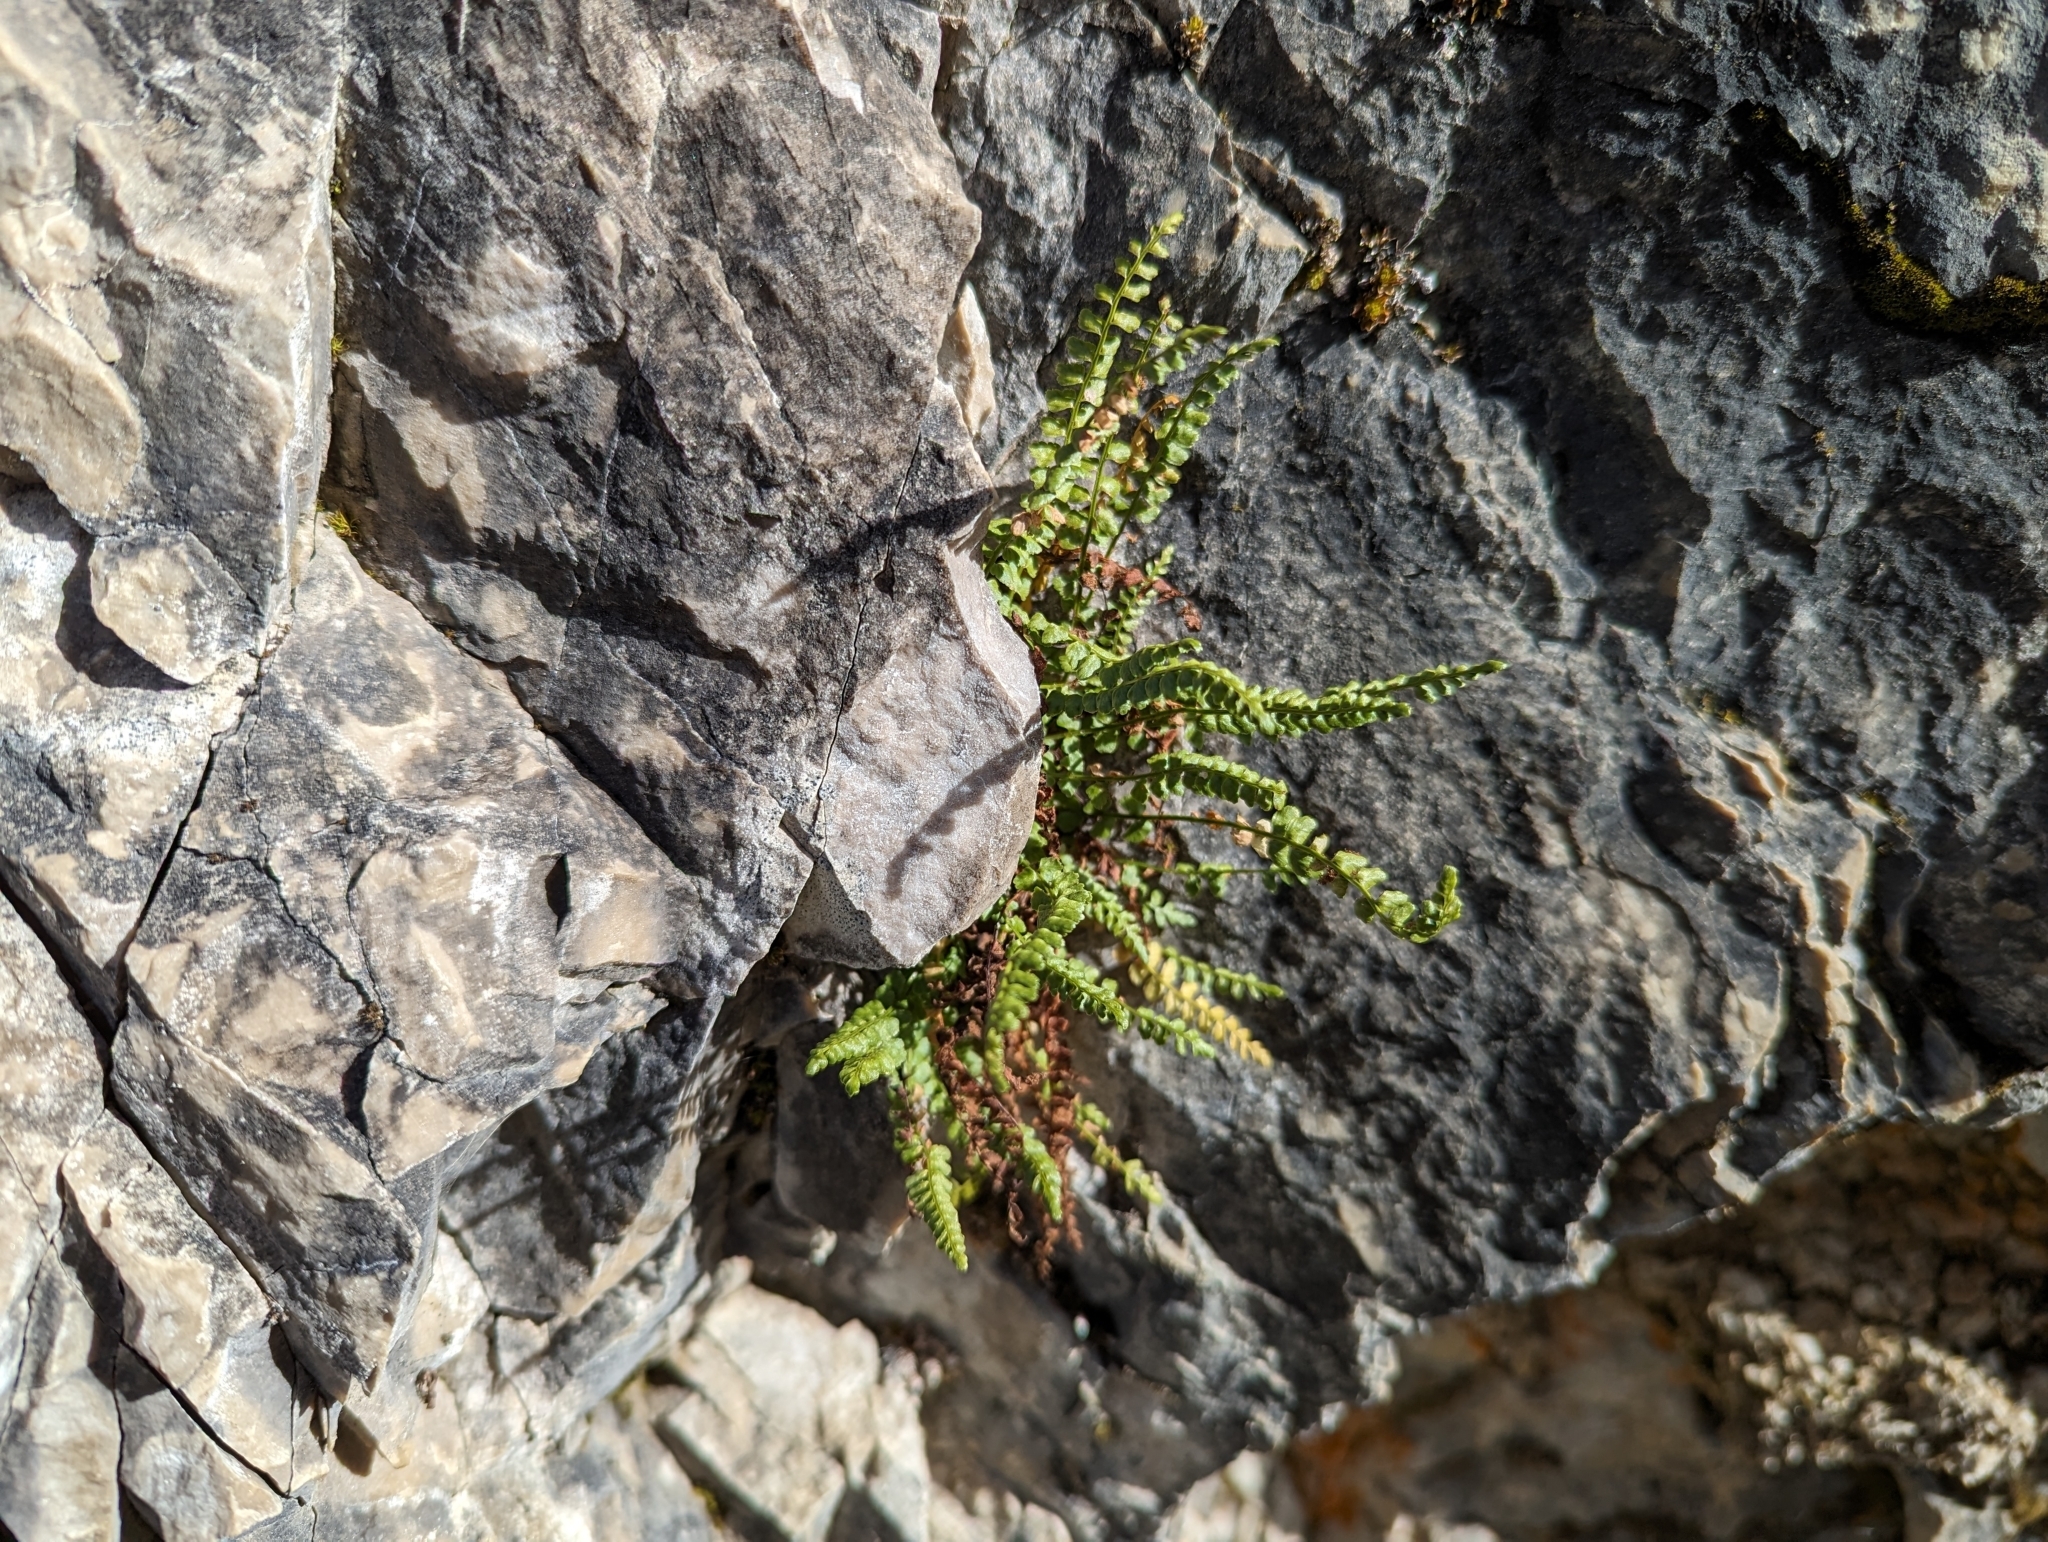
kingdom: Plantae
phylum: Tracheophyta
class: Polypodiopsida
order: Polypodiales
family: Aspleniaceae
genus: Asplenium
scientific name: Asplenium viride
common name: Green spleenwort
